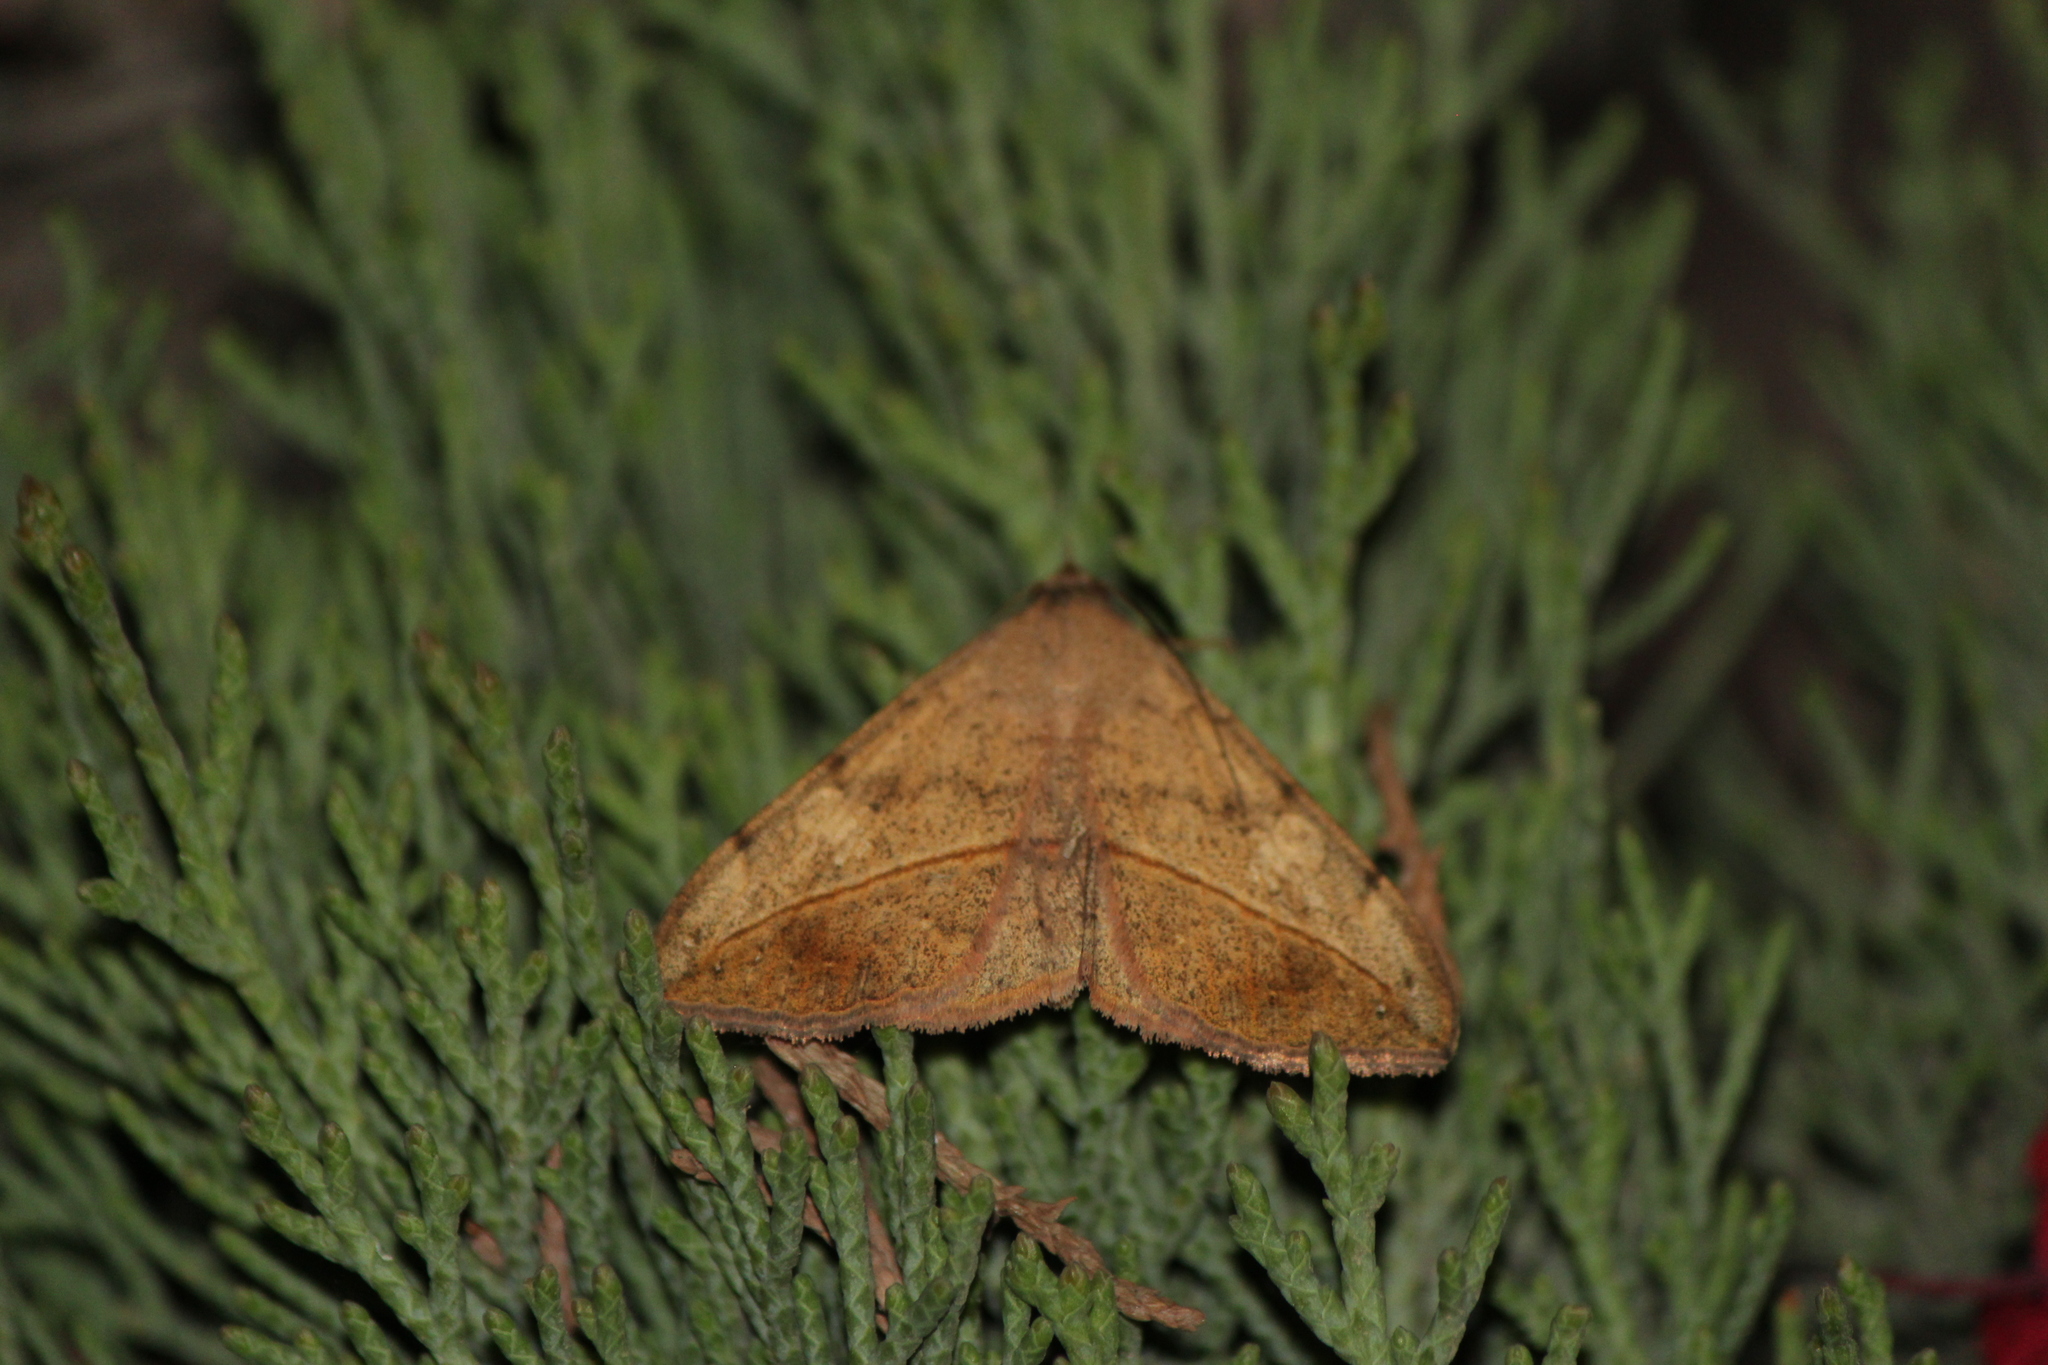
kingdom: Animalia
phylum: Arthropoda
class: Insecta
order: Lepidoptera
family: Erebidae
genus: Anticarsia
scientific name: Anticarsia gemmatalis
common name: Cutworm moth
